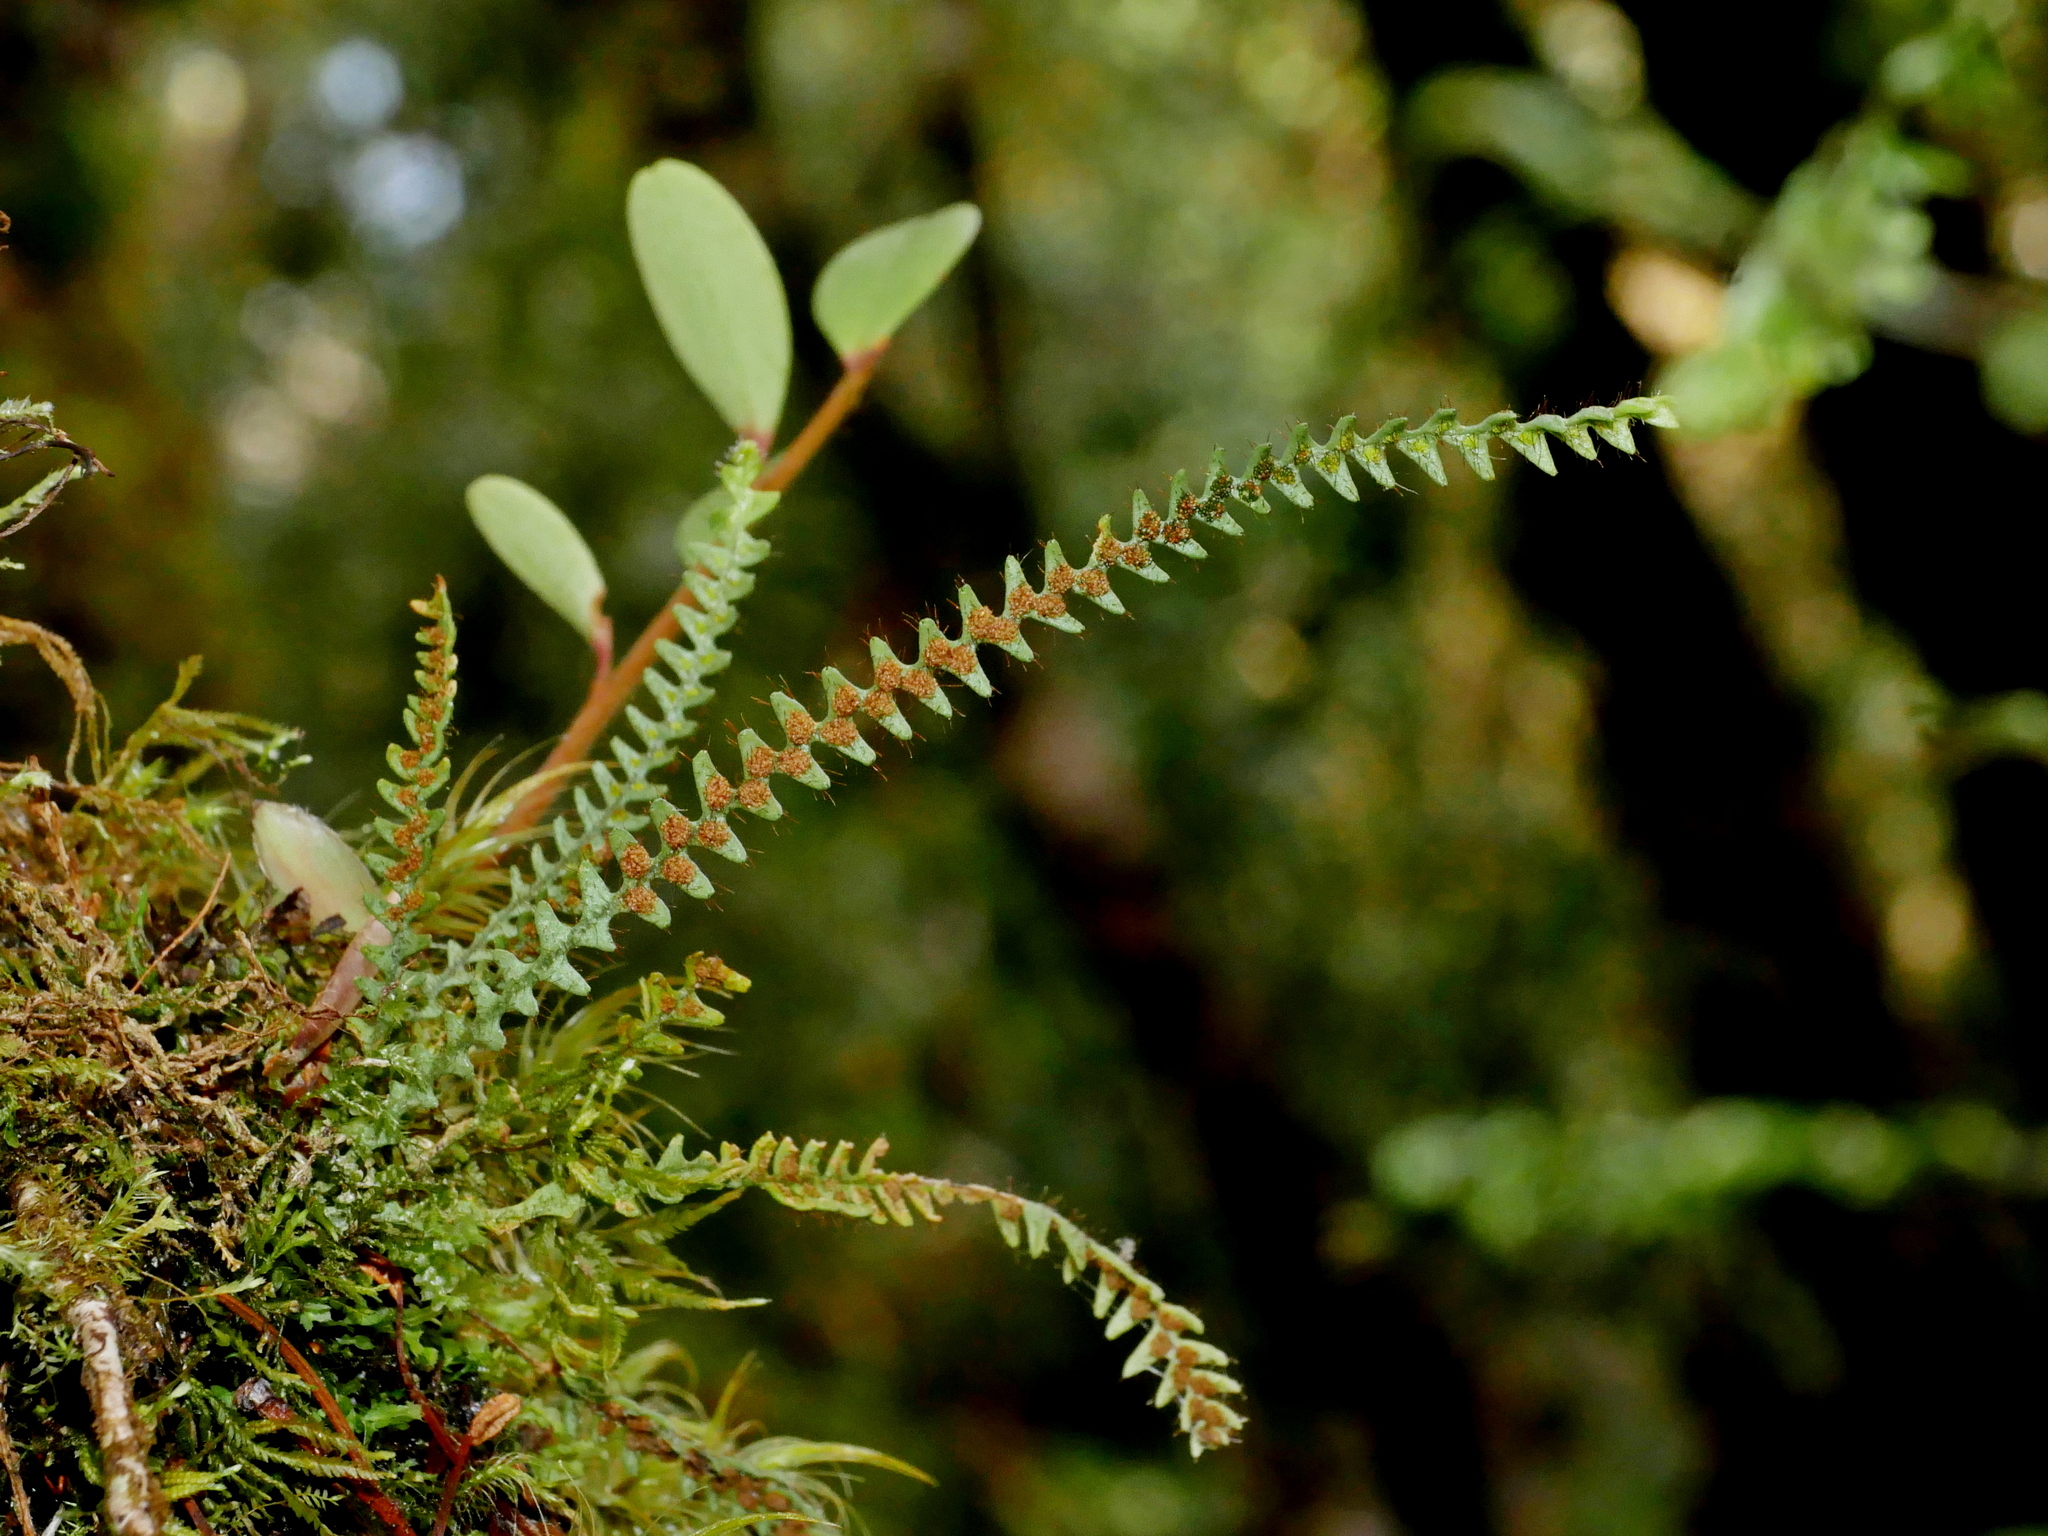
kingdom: Plantae
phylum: Tracheophyta
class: Polypodiopsida
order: Polypodiales
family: Polypodiaceae
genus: Micropolypodium
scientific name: Micropolypodium okuboi
